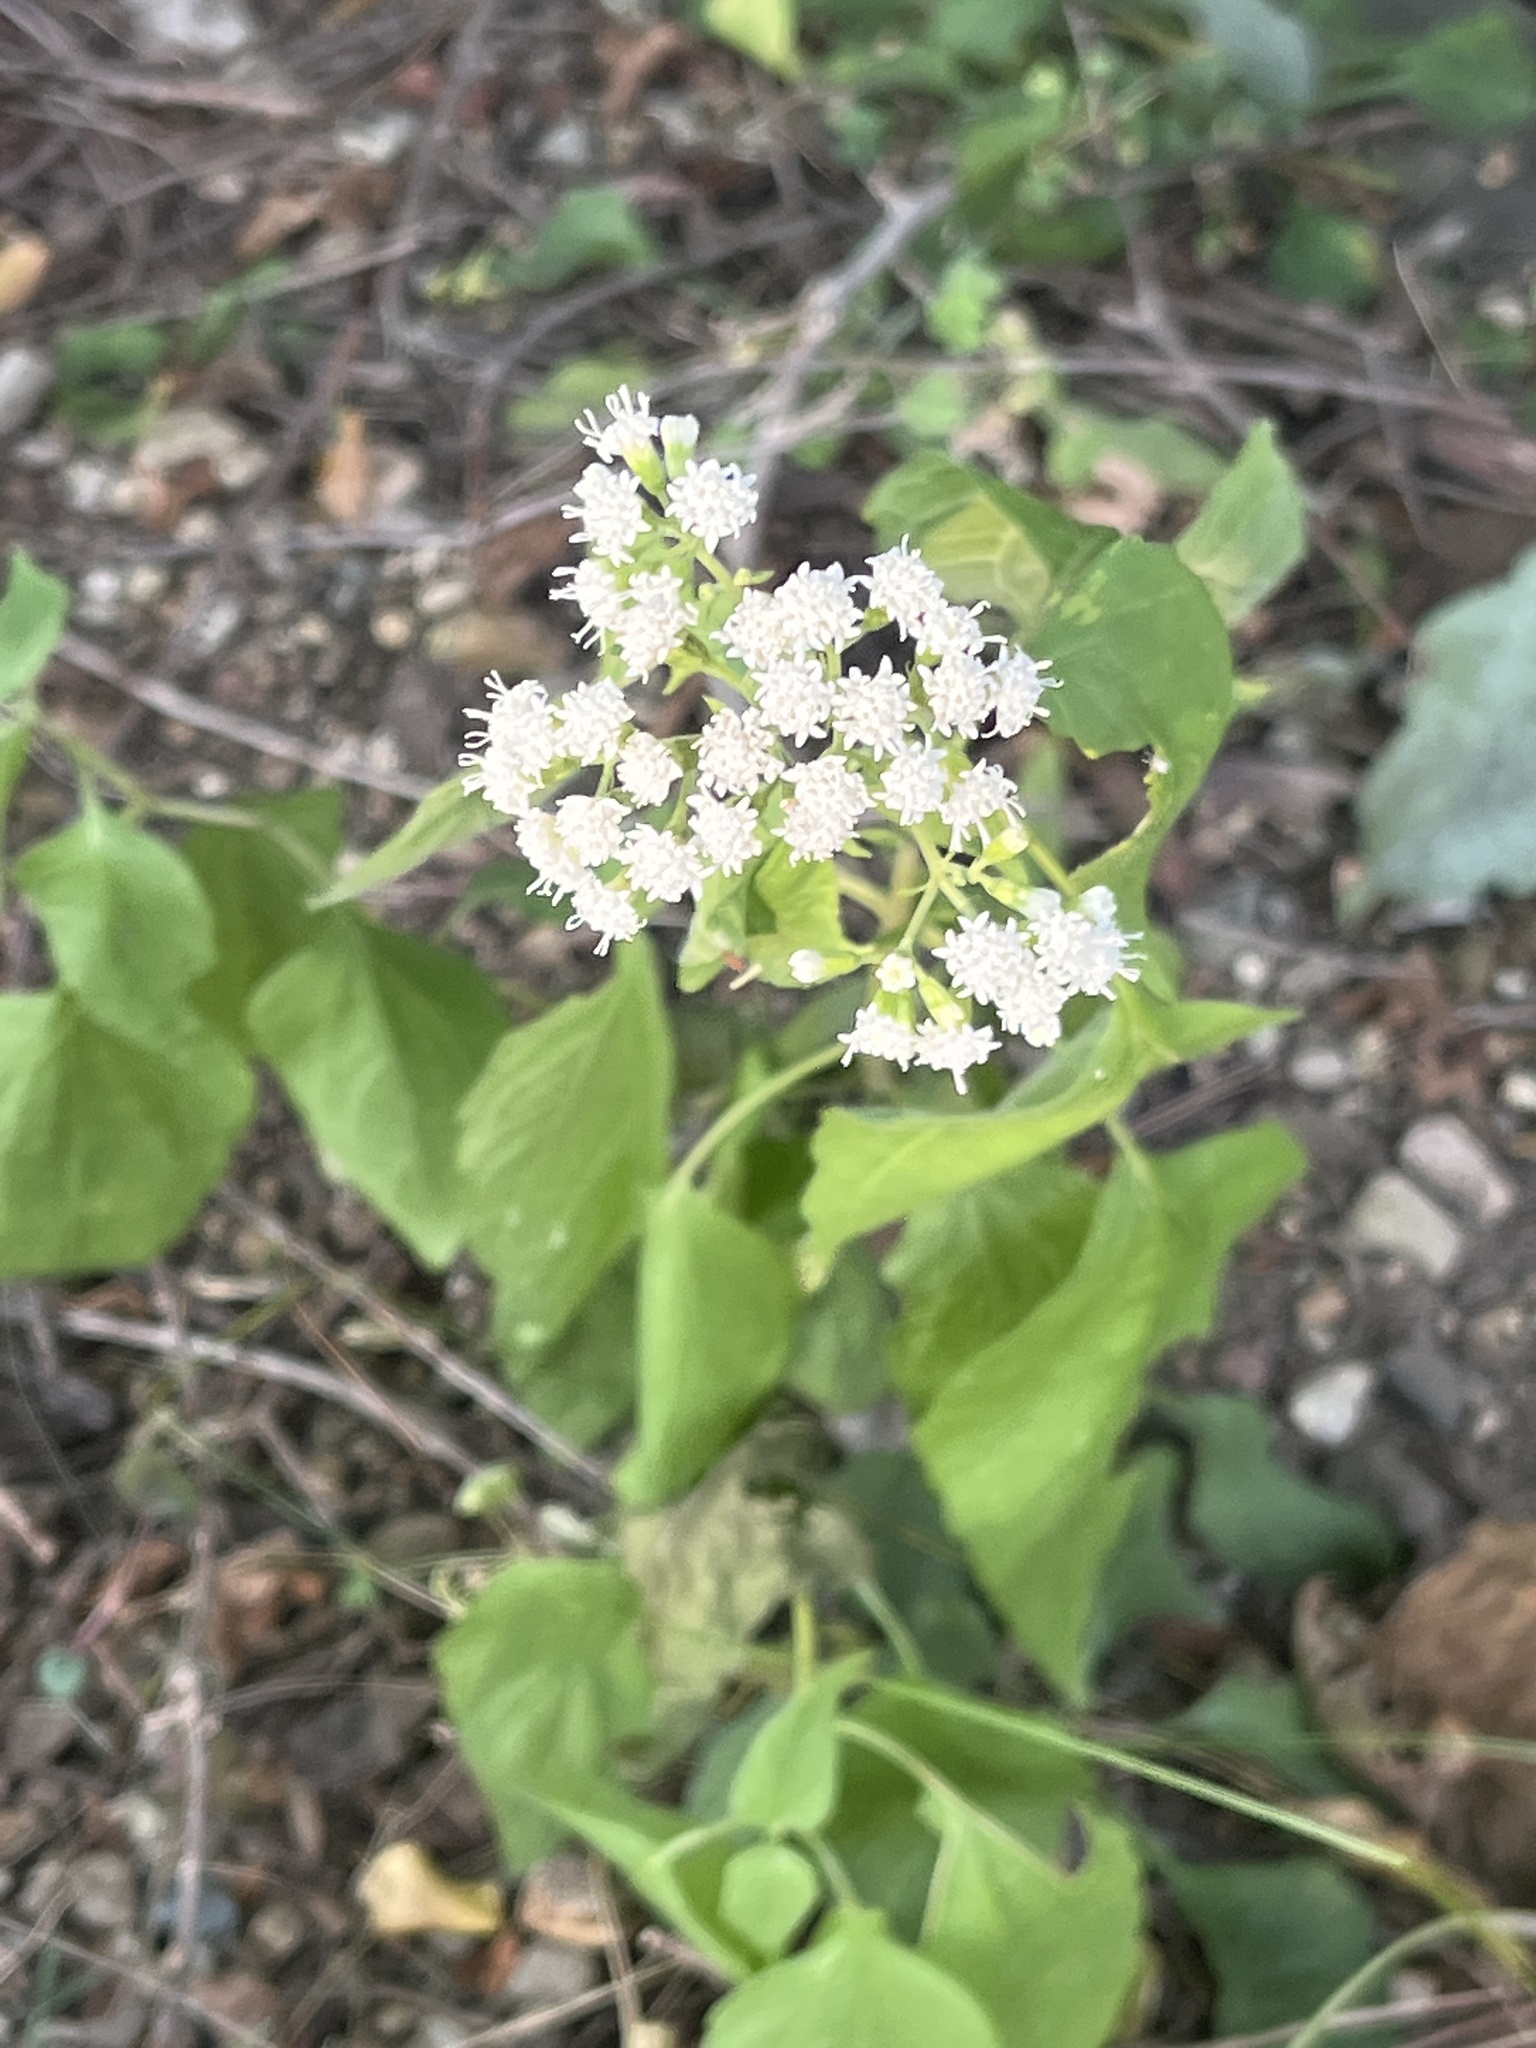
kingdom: Plantae
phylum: Tracheophyta
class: Magnoliopsida
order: Asterales
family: Asteraceae
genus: Ageratina
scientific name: Ageratina altissima
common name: White snakeroot
